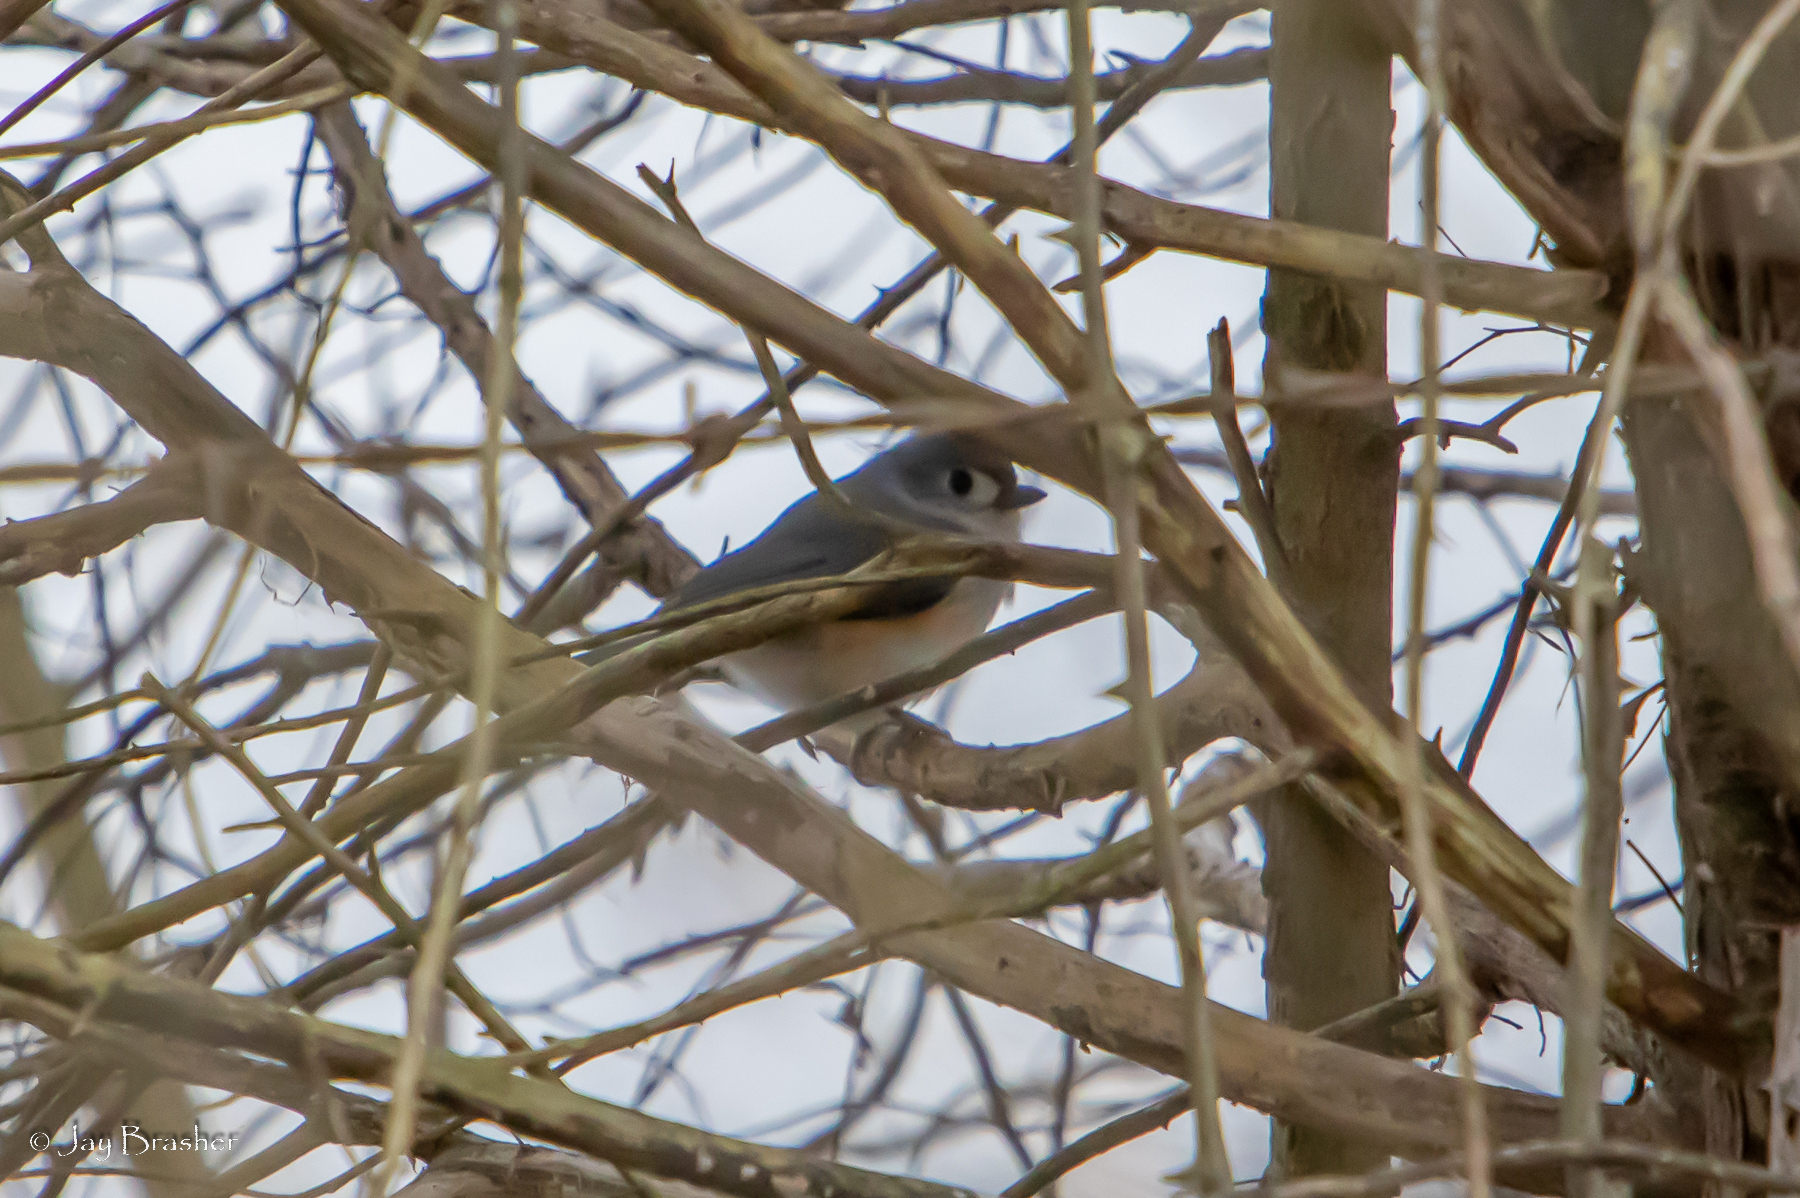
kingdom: Animalia
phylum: Chordata
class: Aves
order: Passeriformes
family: Paridae
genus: Baeolophus
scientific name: Baeolophus bicolor
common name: Tufted titmouse
